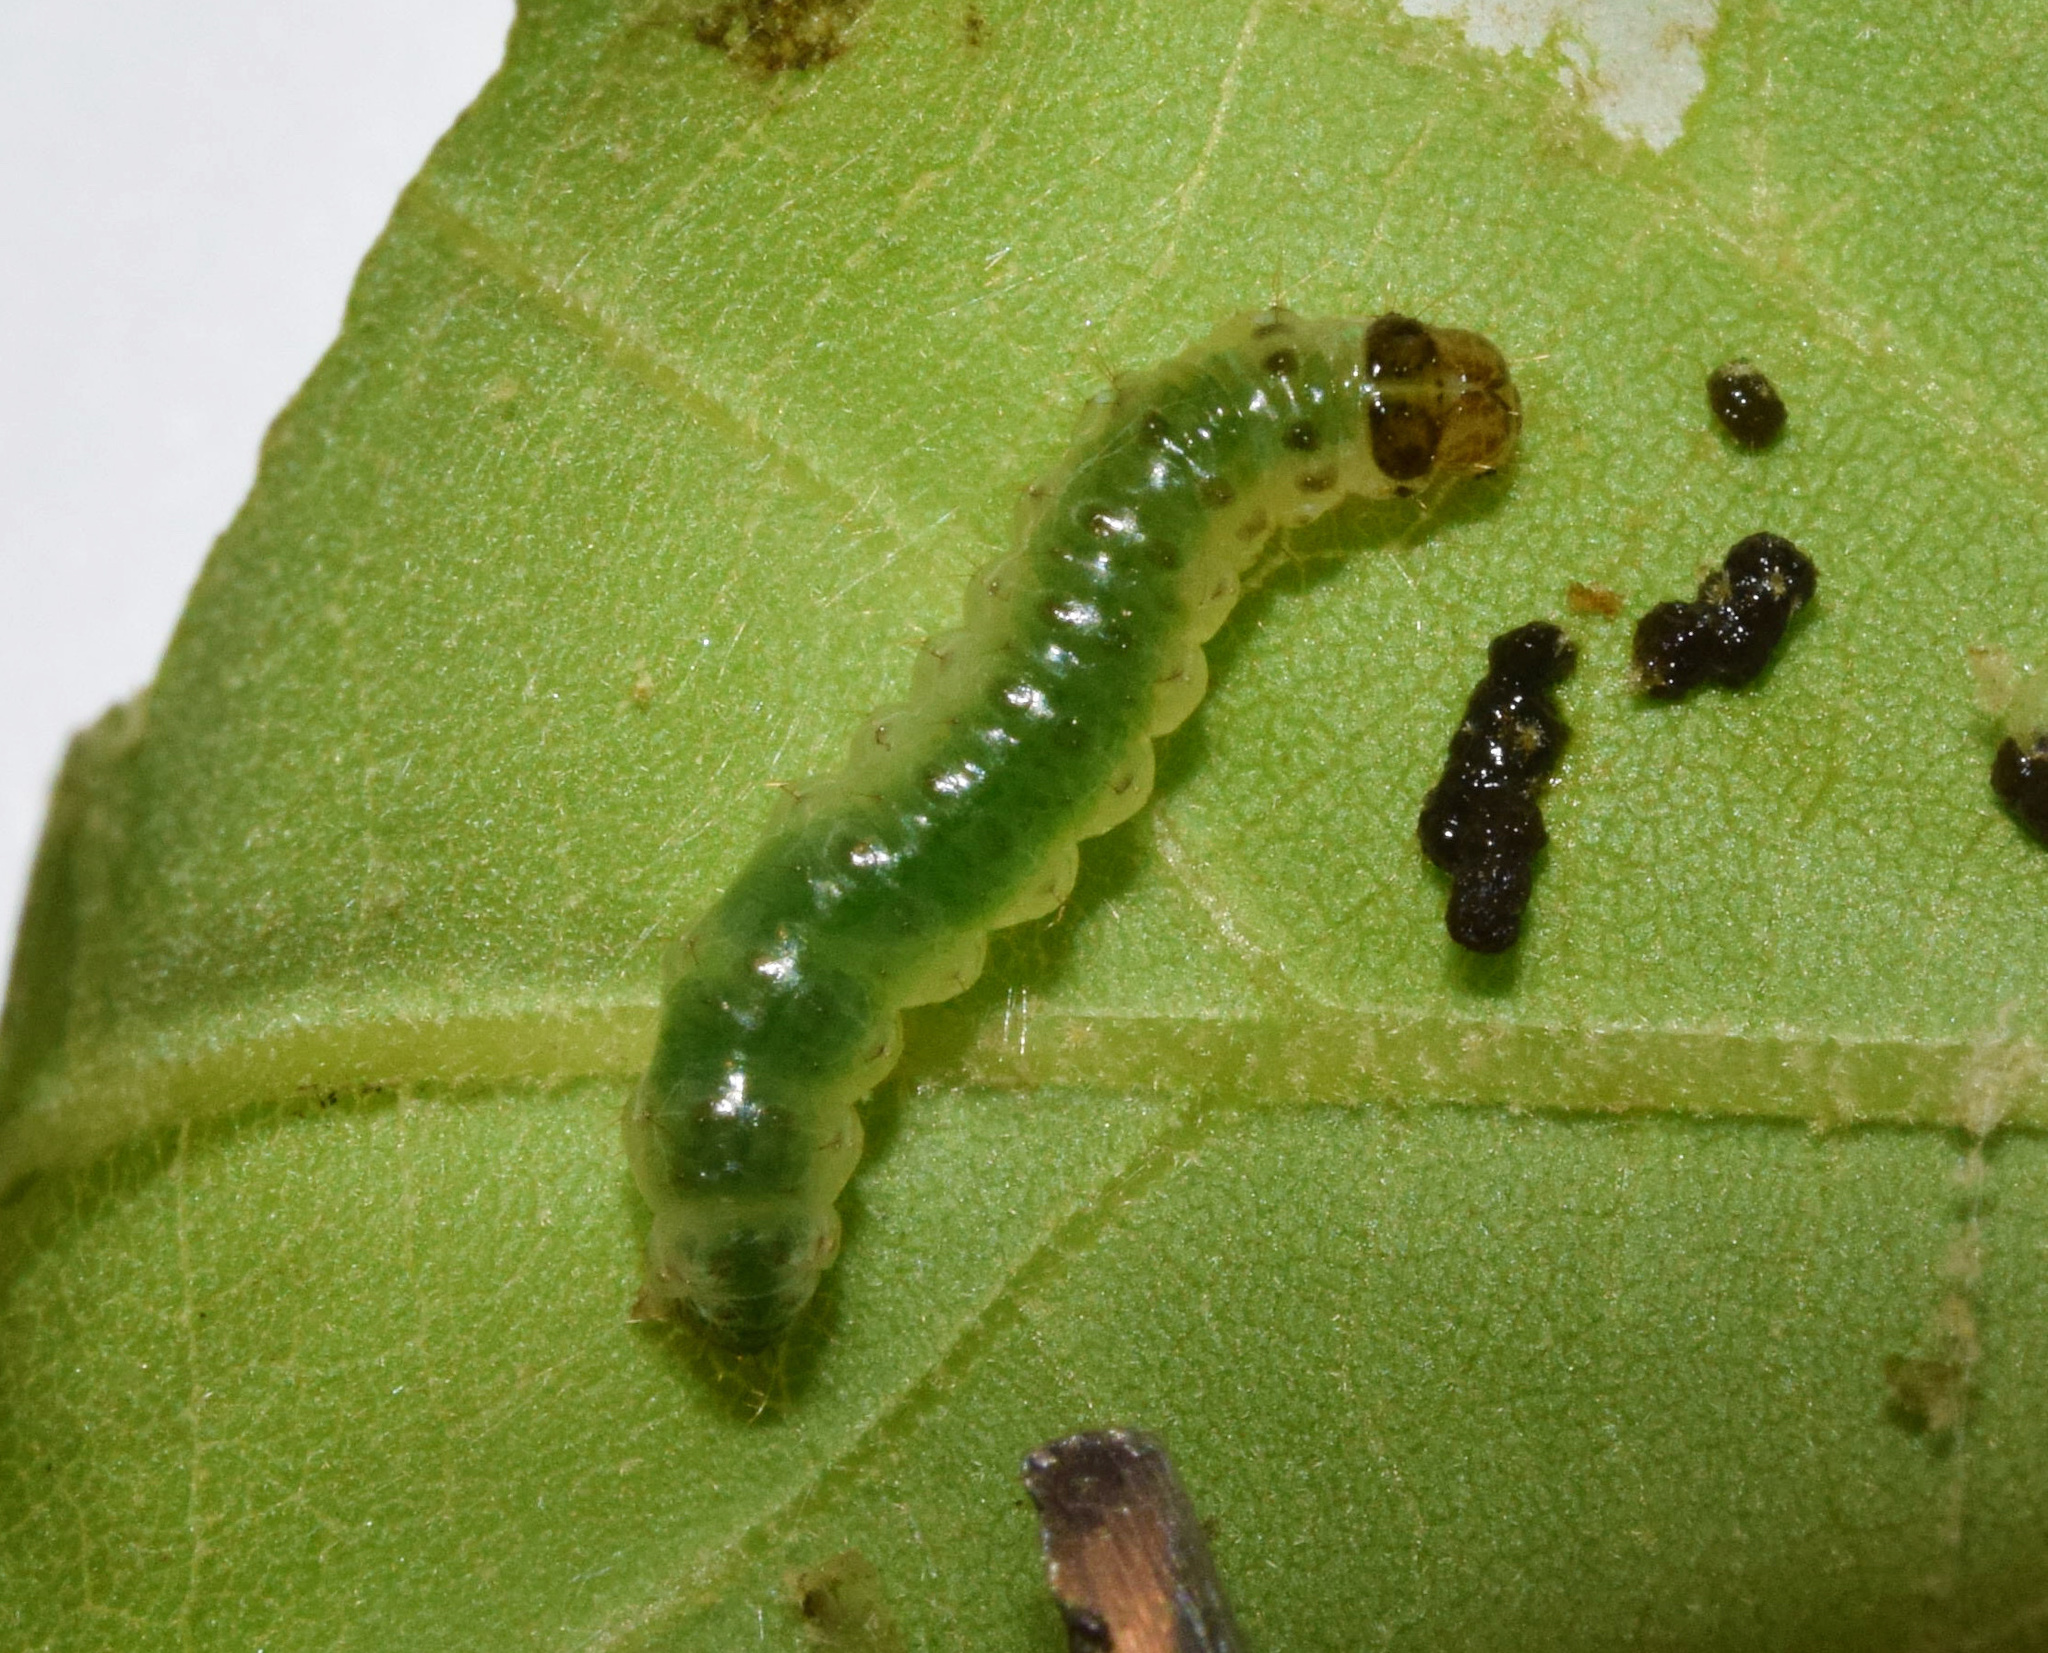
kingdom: Animalia
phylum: Arthropoda
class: Insecta
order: Lepidoptera
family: Crambidae
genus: Notarcha
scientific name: Notarcha quaternalis
